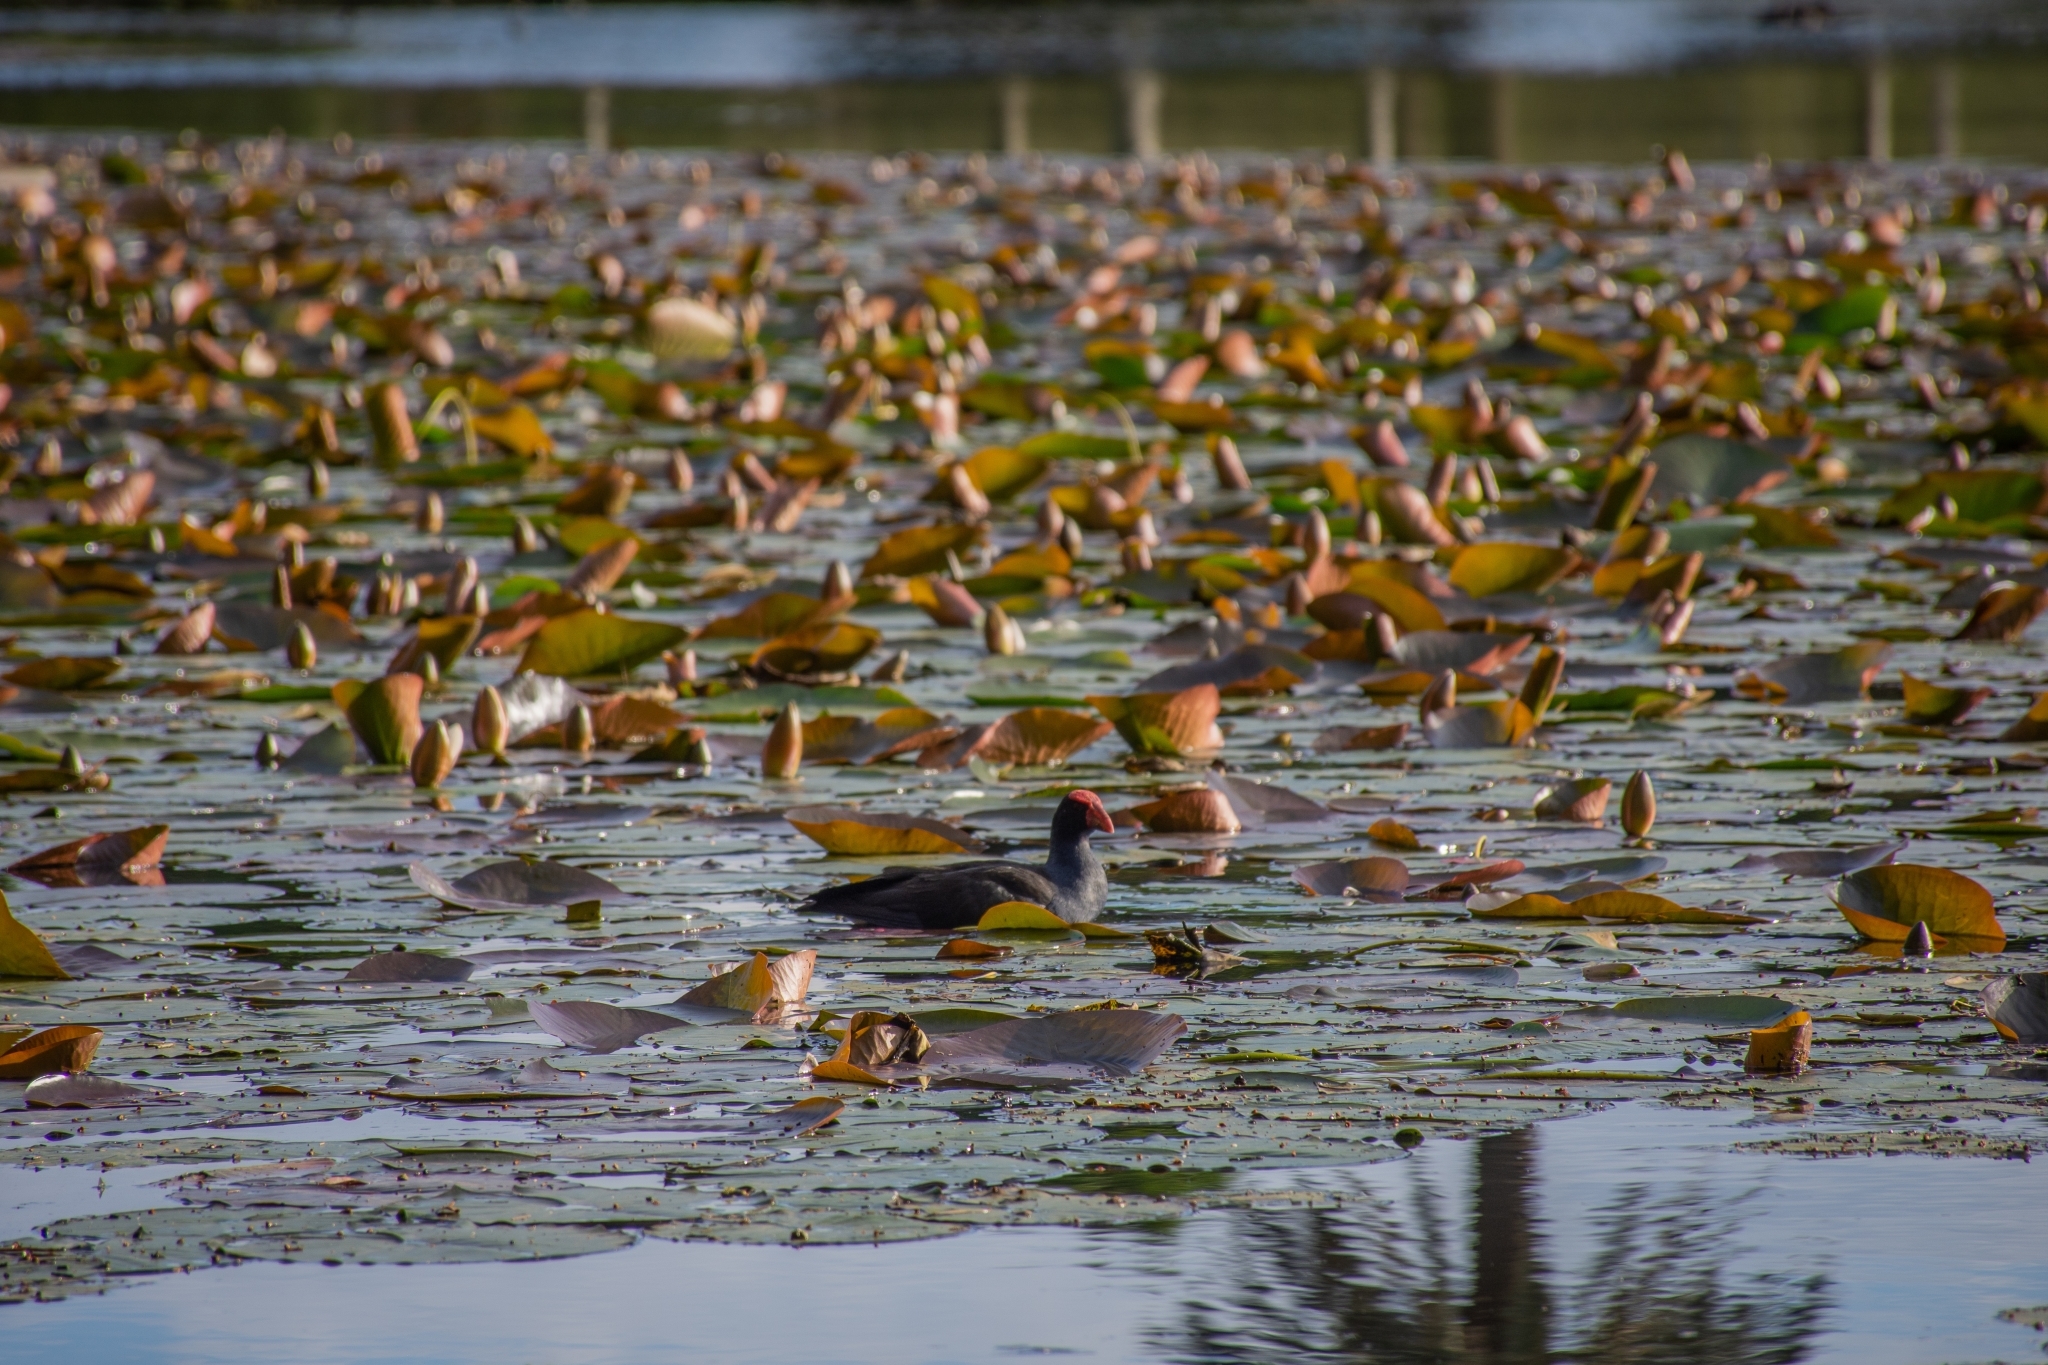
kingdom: Animalia
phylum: Chordata
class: Aves
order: Gruiformes
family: Rallidae
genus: Porphyrio
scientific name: Porphyrio melanotus
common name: Australasian swamphen
